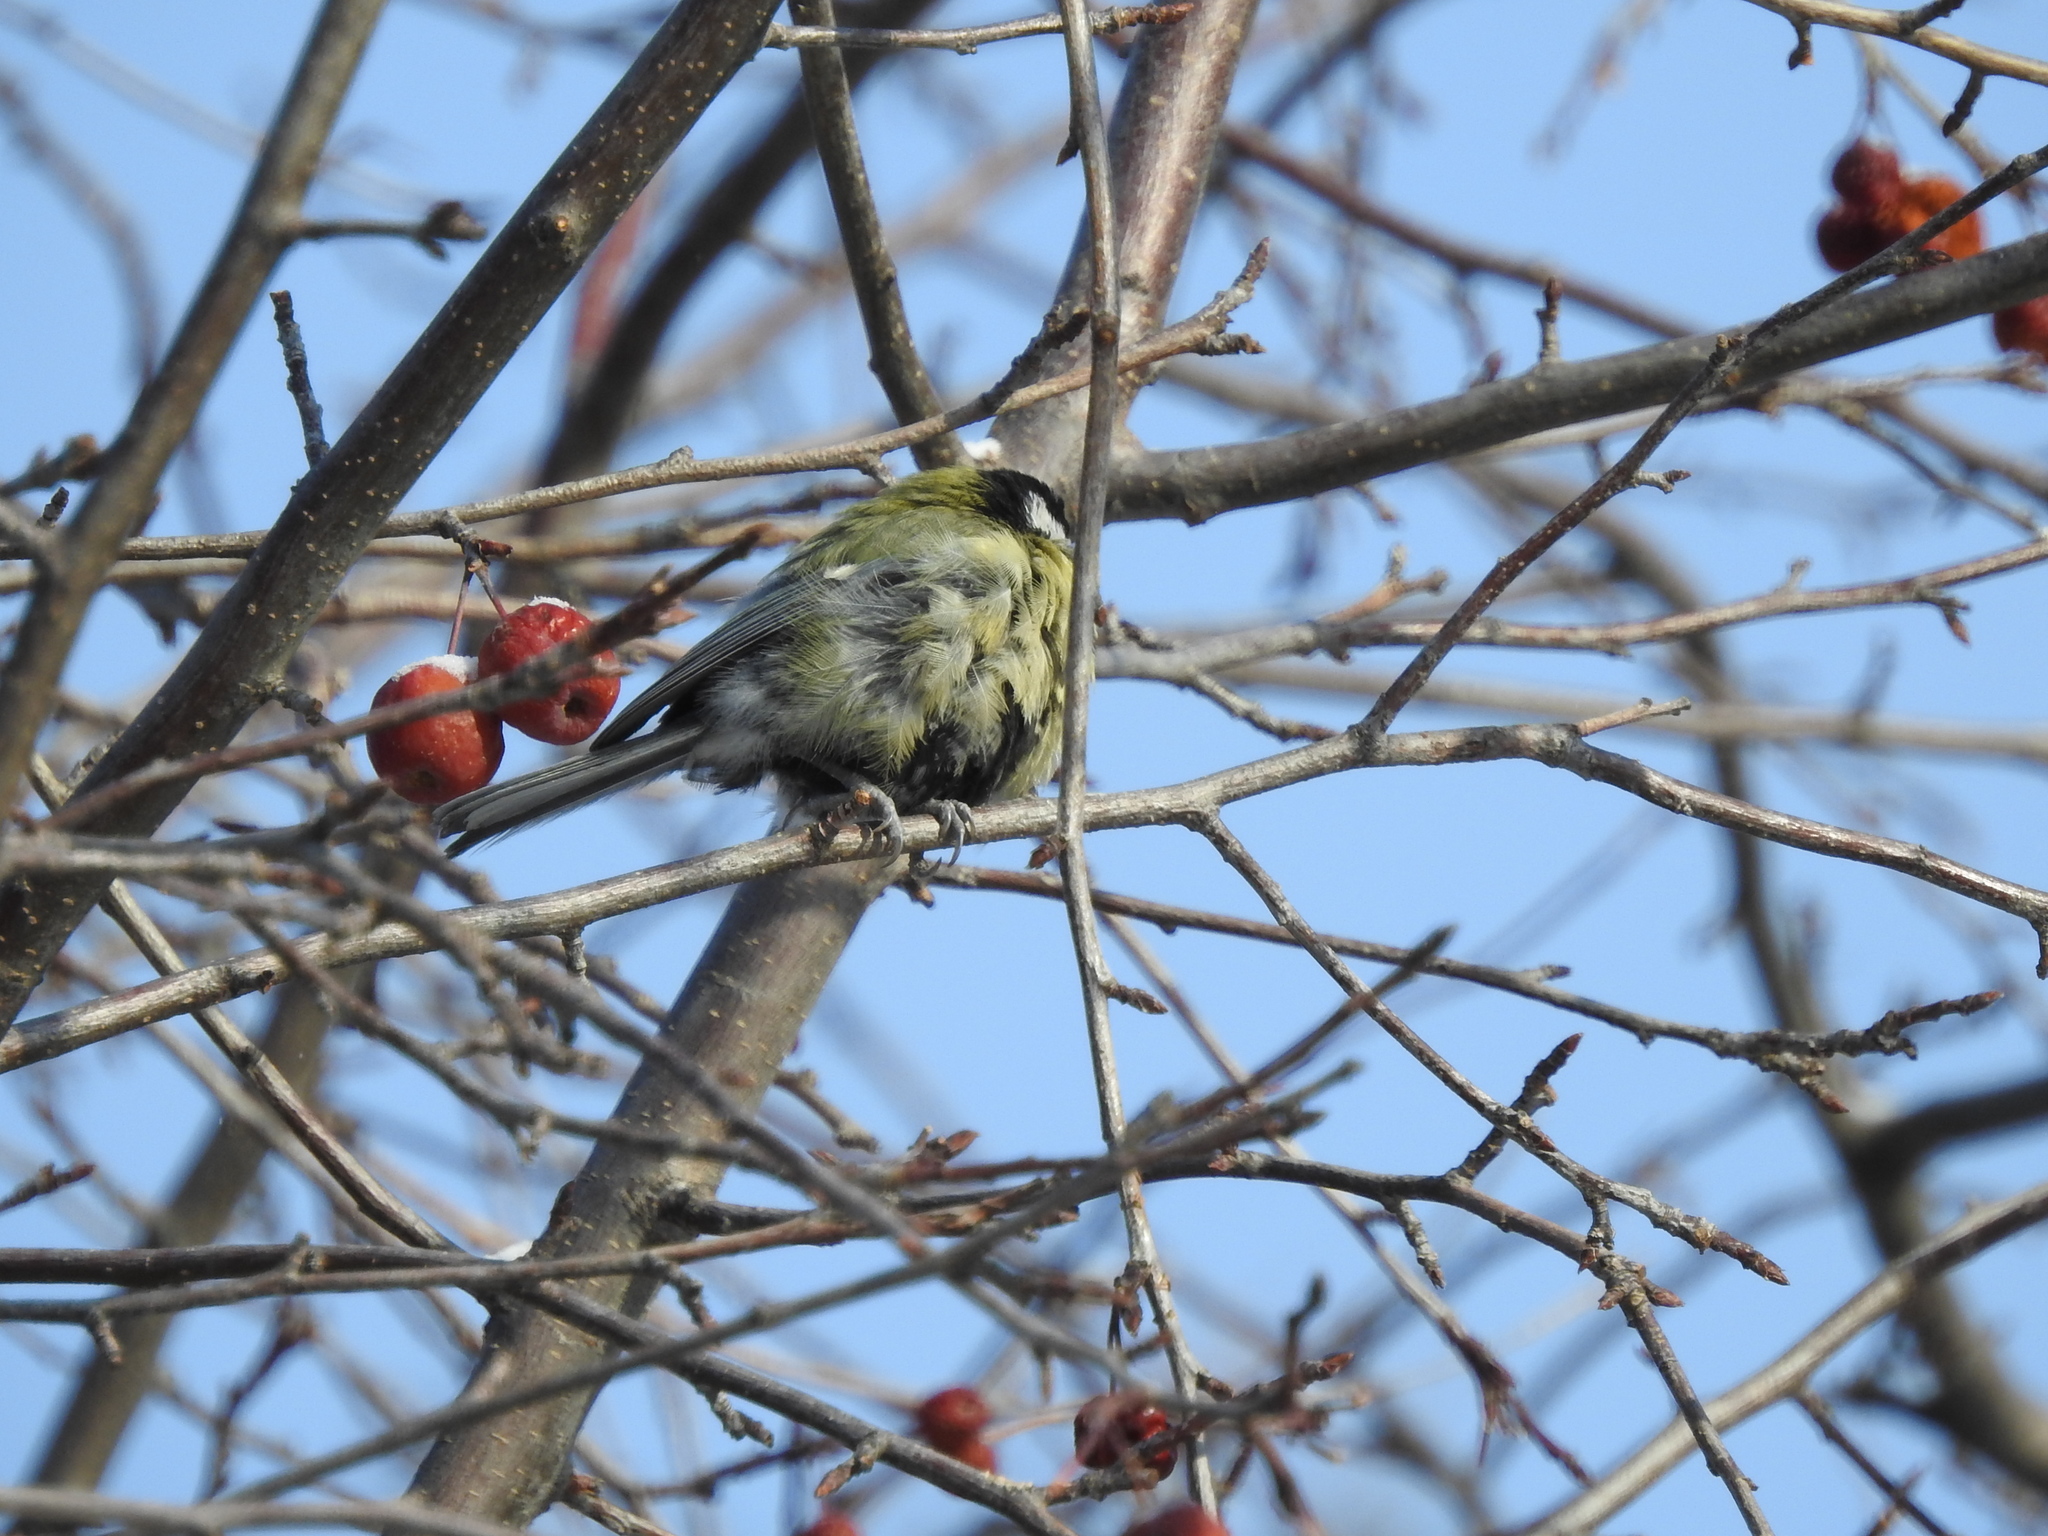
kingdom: Animalia
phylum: Chordata
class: Aves
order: Passeriformes
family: Paridae
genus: Parus
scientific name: Parus major
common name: Great tit
